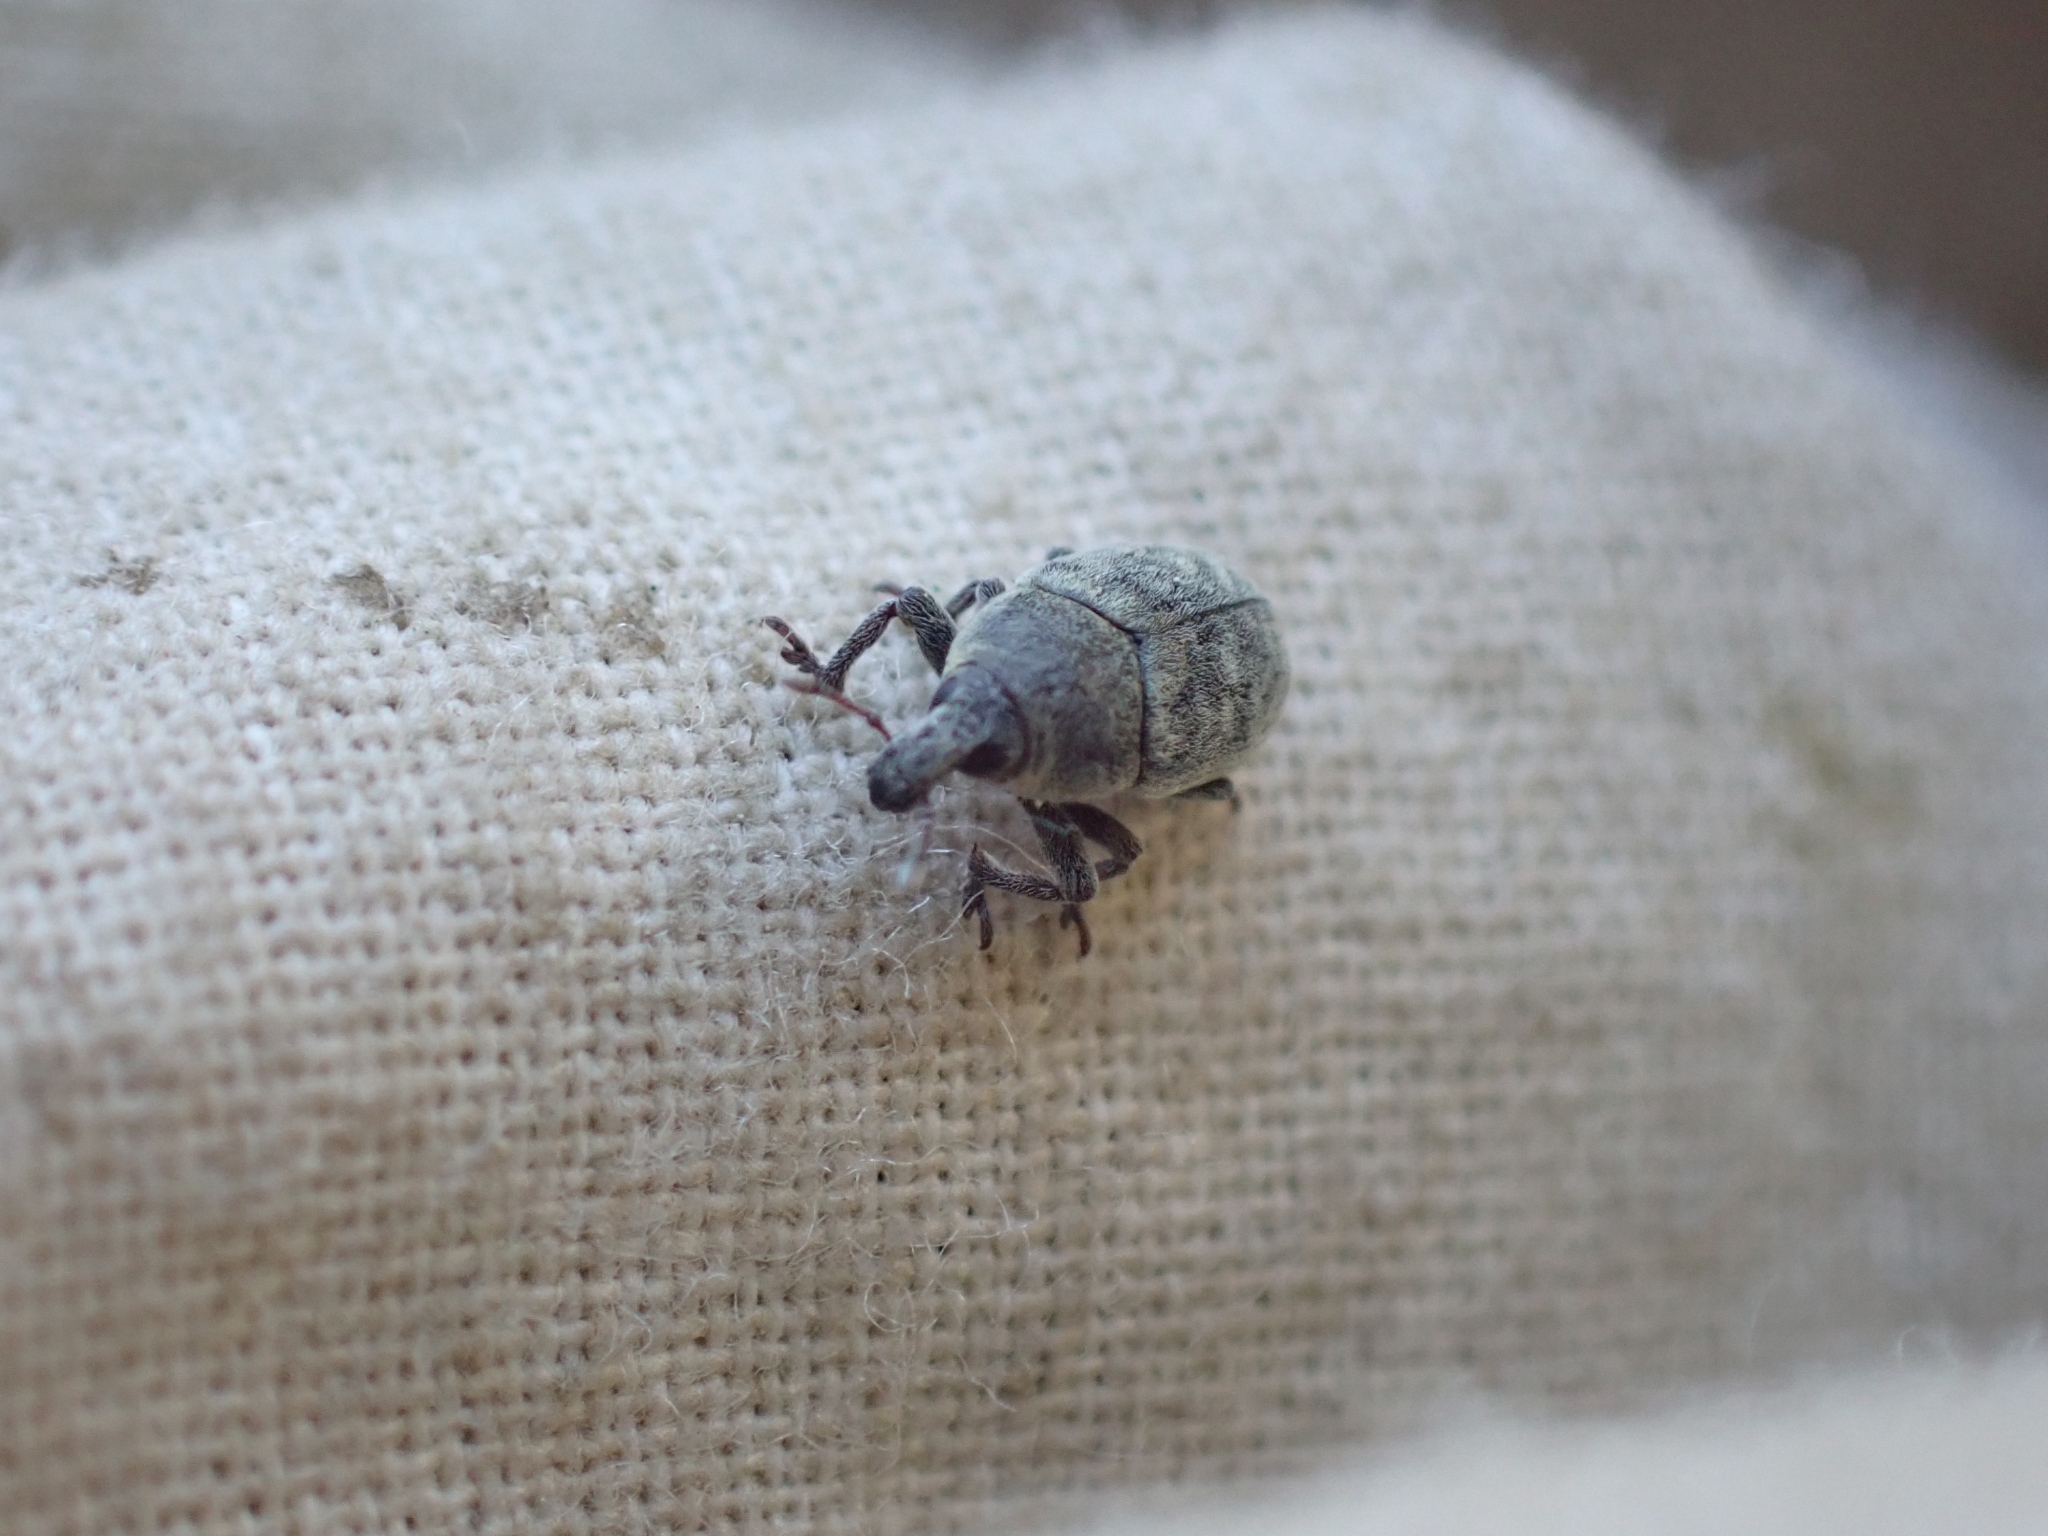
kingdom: Animalia
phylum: Arthropoda
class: Insecta
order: Coleoptera
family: Curculionidae
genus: Larinus
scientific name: Larinus minutus
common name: Weevil
